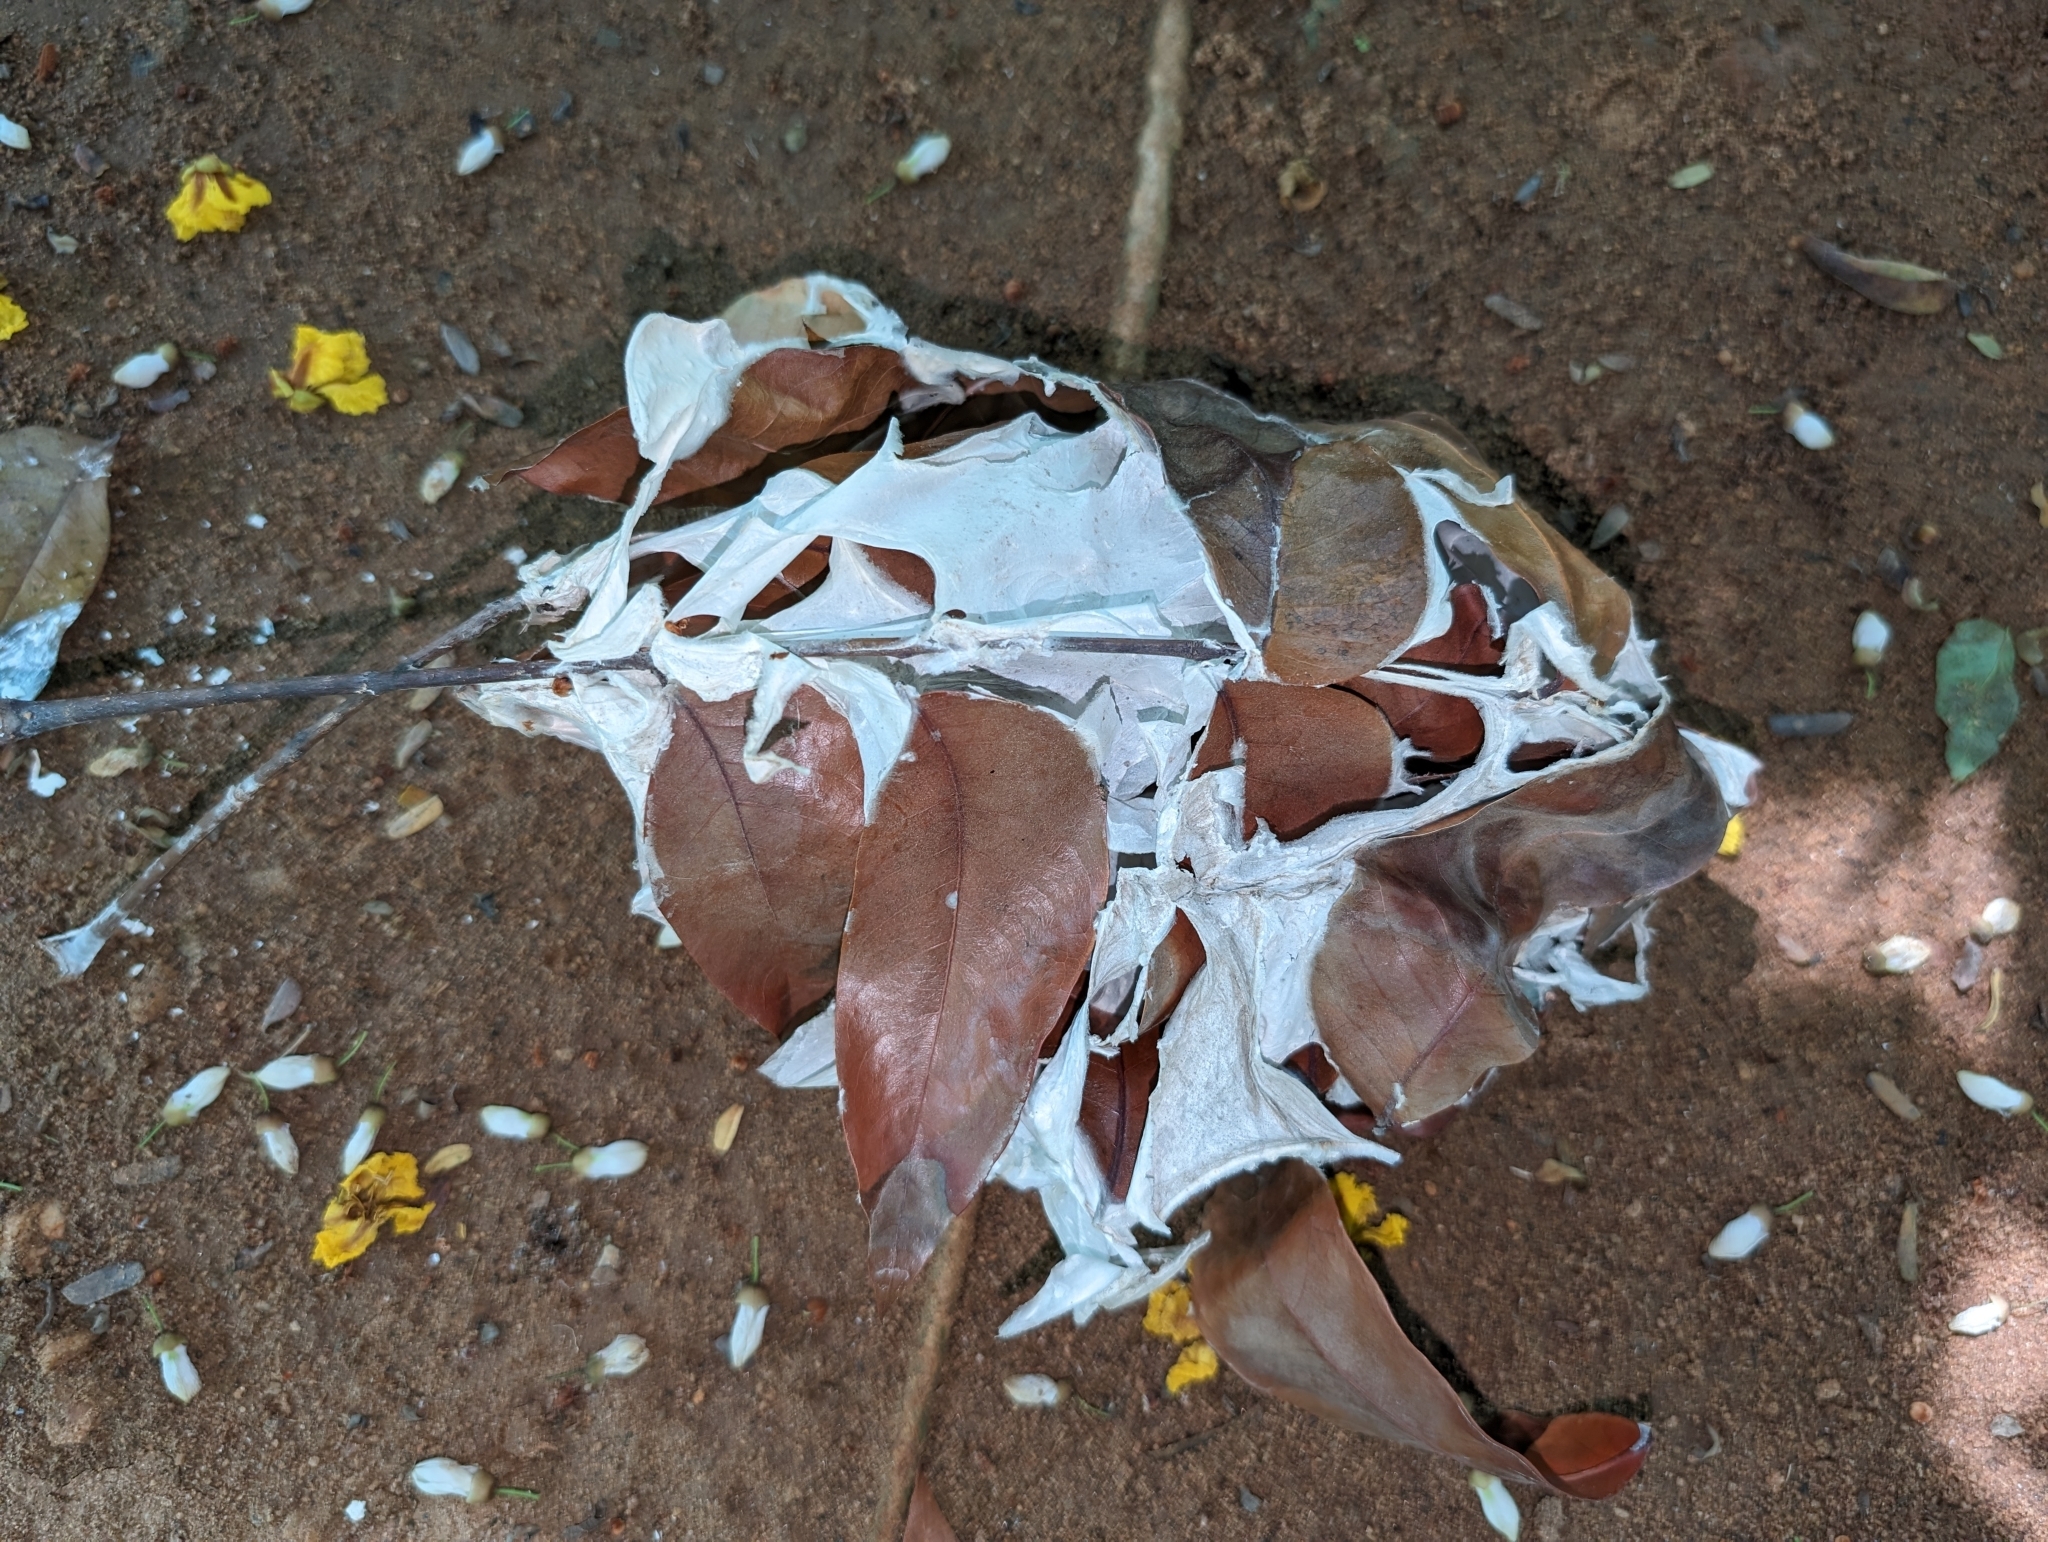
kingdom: Animalia
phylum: Arthropoda
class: Insecta
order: Hymenoptera
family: Formicidae
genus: Oecophylla
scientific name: Oecophylla smaragdina
